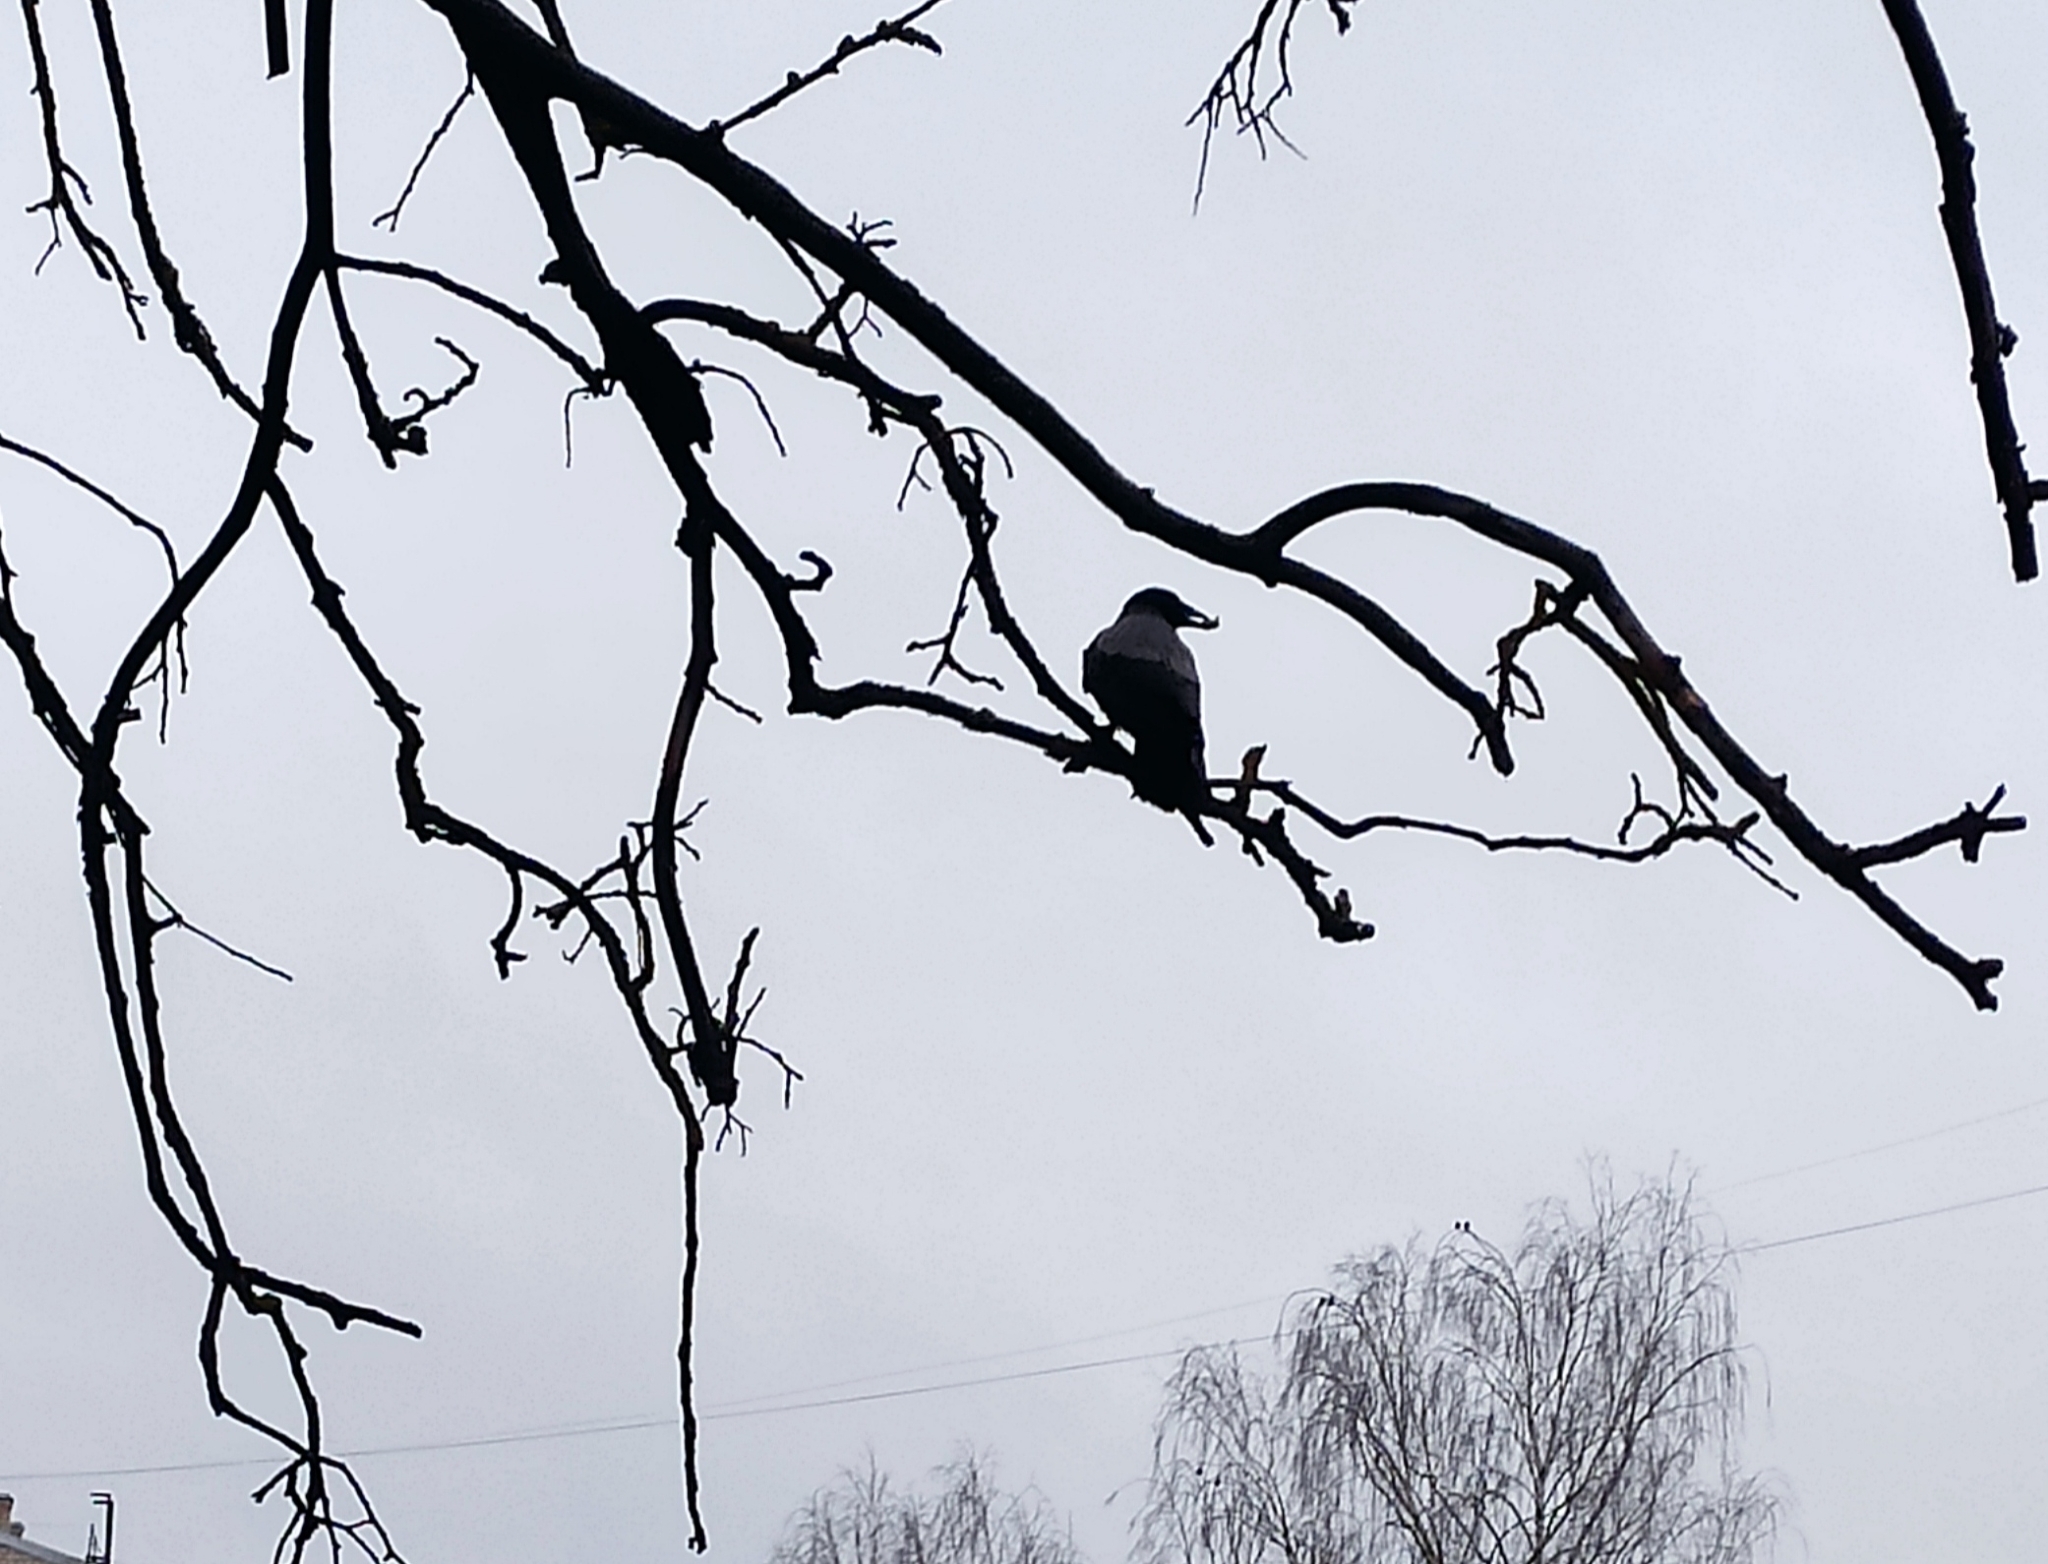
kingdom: Animalia
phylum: Chordata
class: Aves
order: Passeriformes
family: Corvidae
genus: Corvus
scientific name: Corvus cornix
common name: Hooded crow
